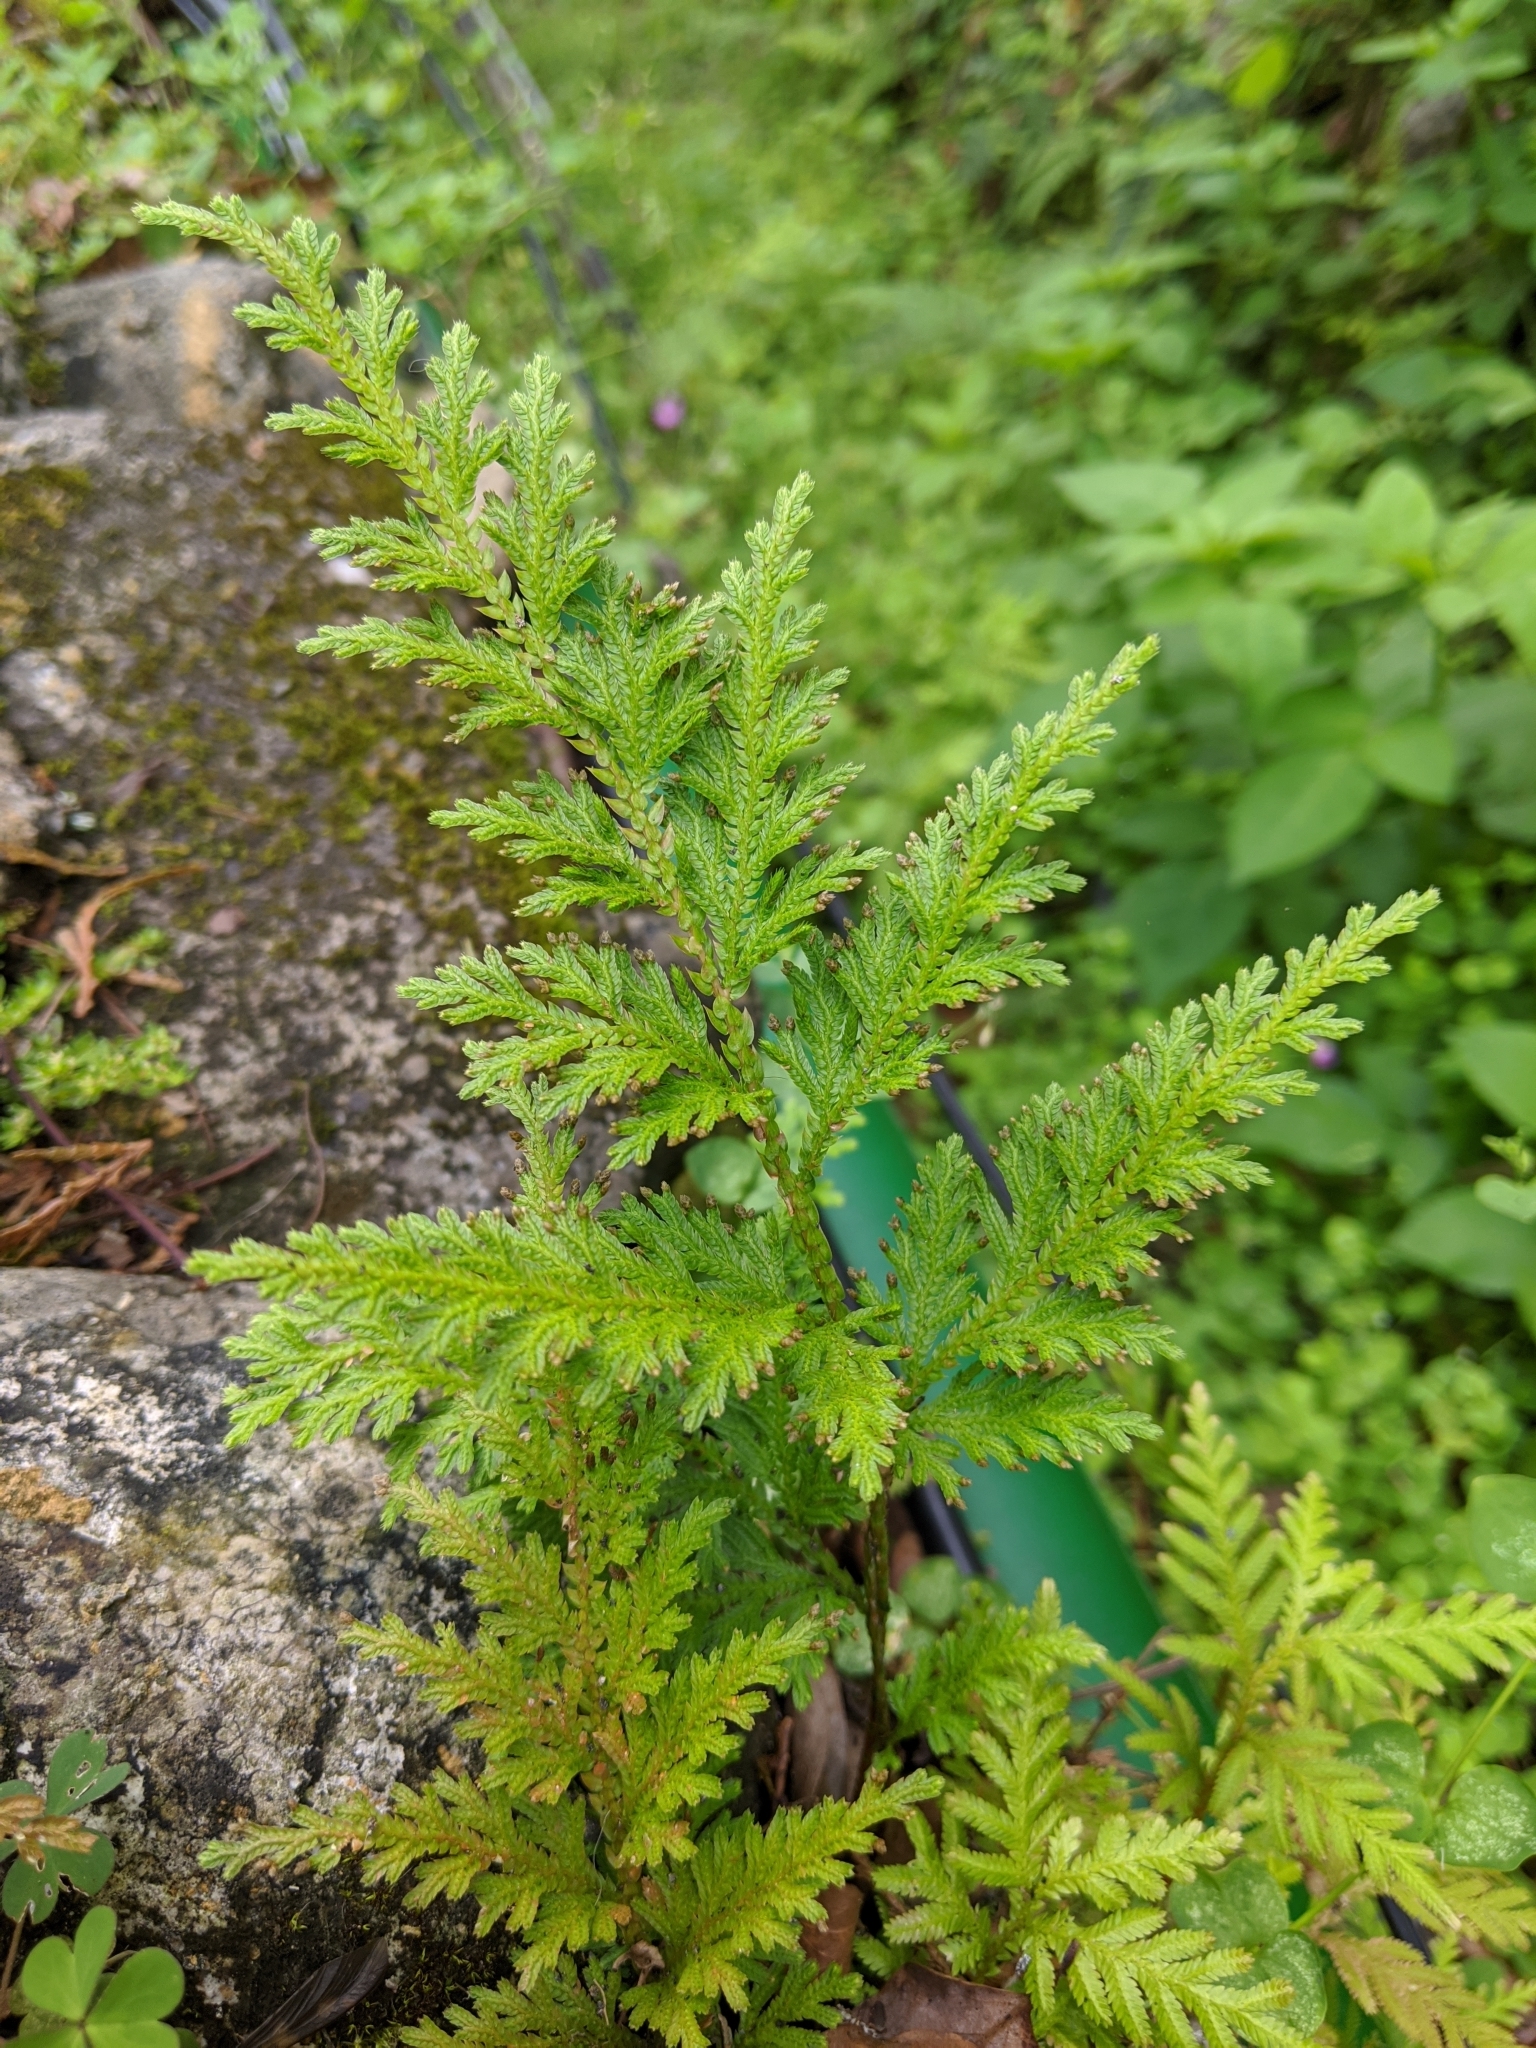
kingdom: Plantae
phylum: Tracheophyta
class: Lycopodiopsida
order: Selaginellales
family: Selaginellaceae
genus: Selaginella
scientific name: Selaginella moellendorffii
